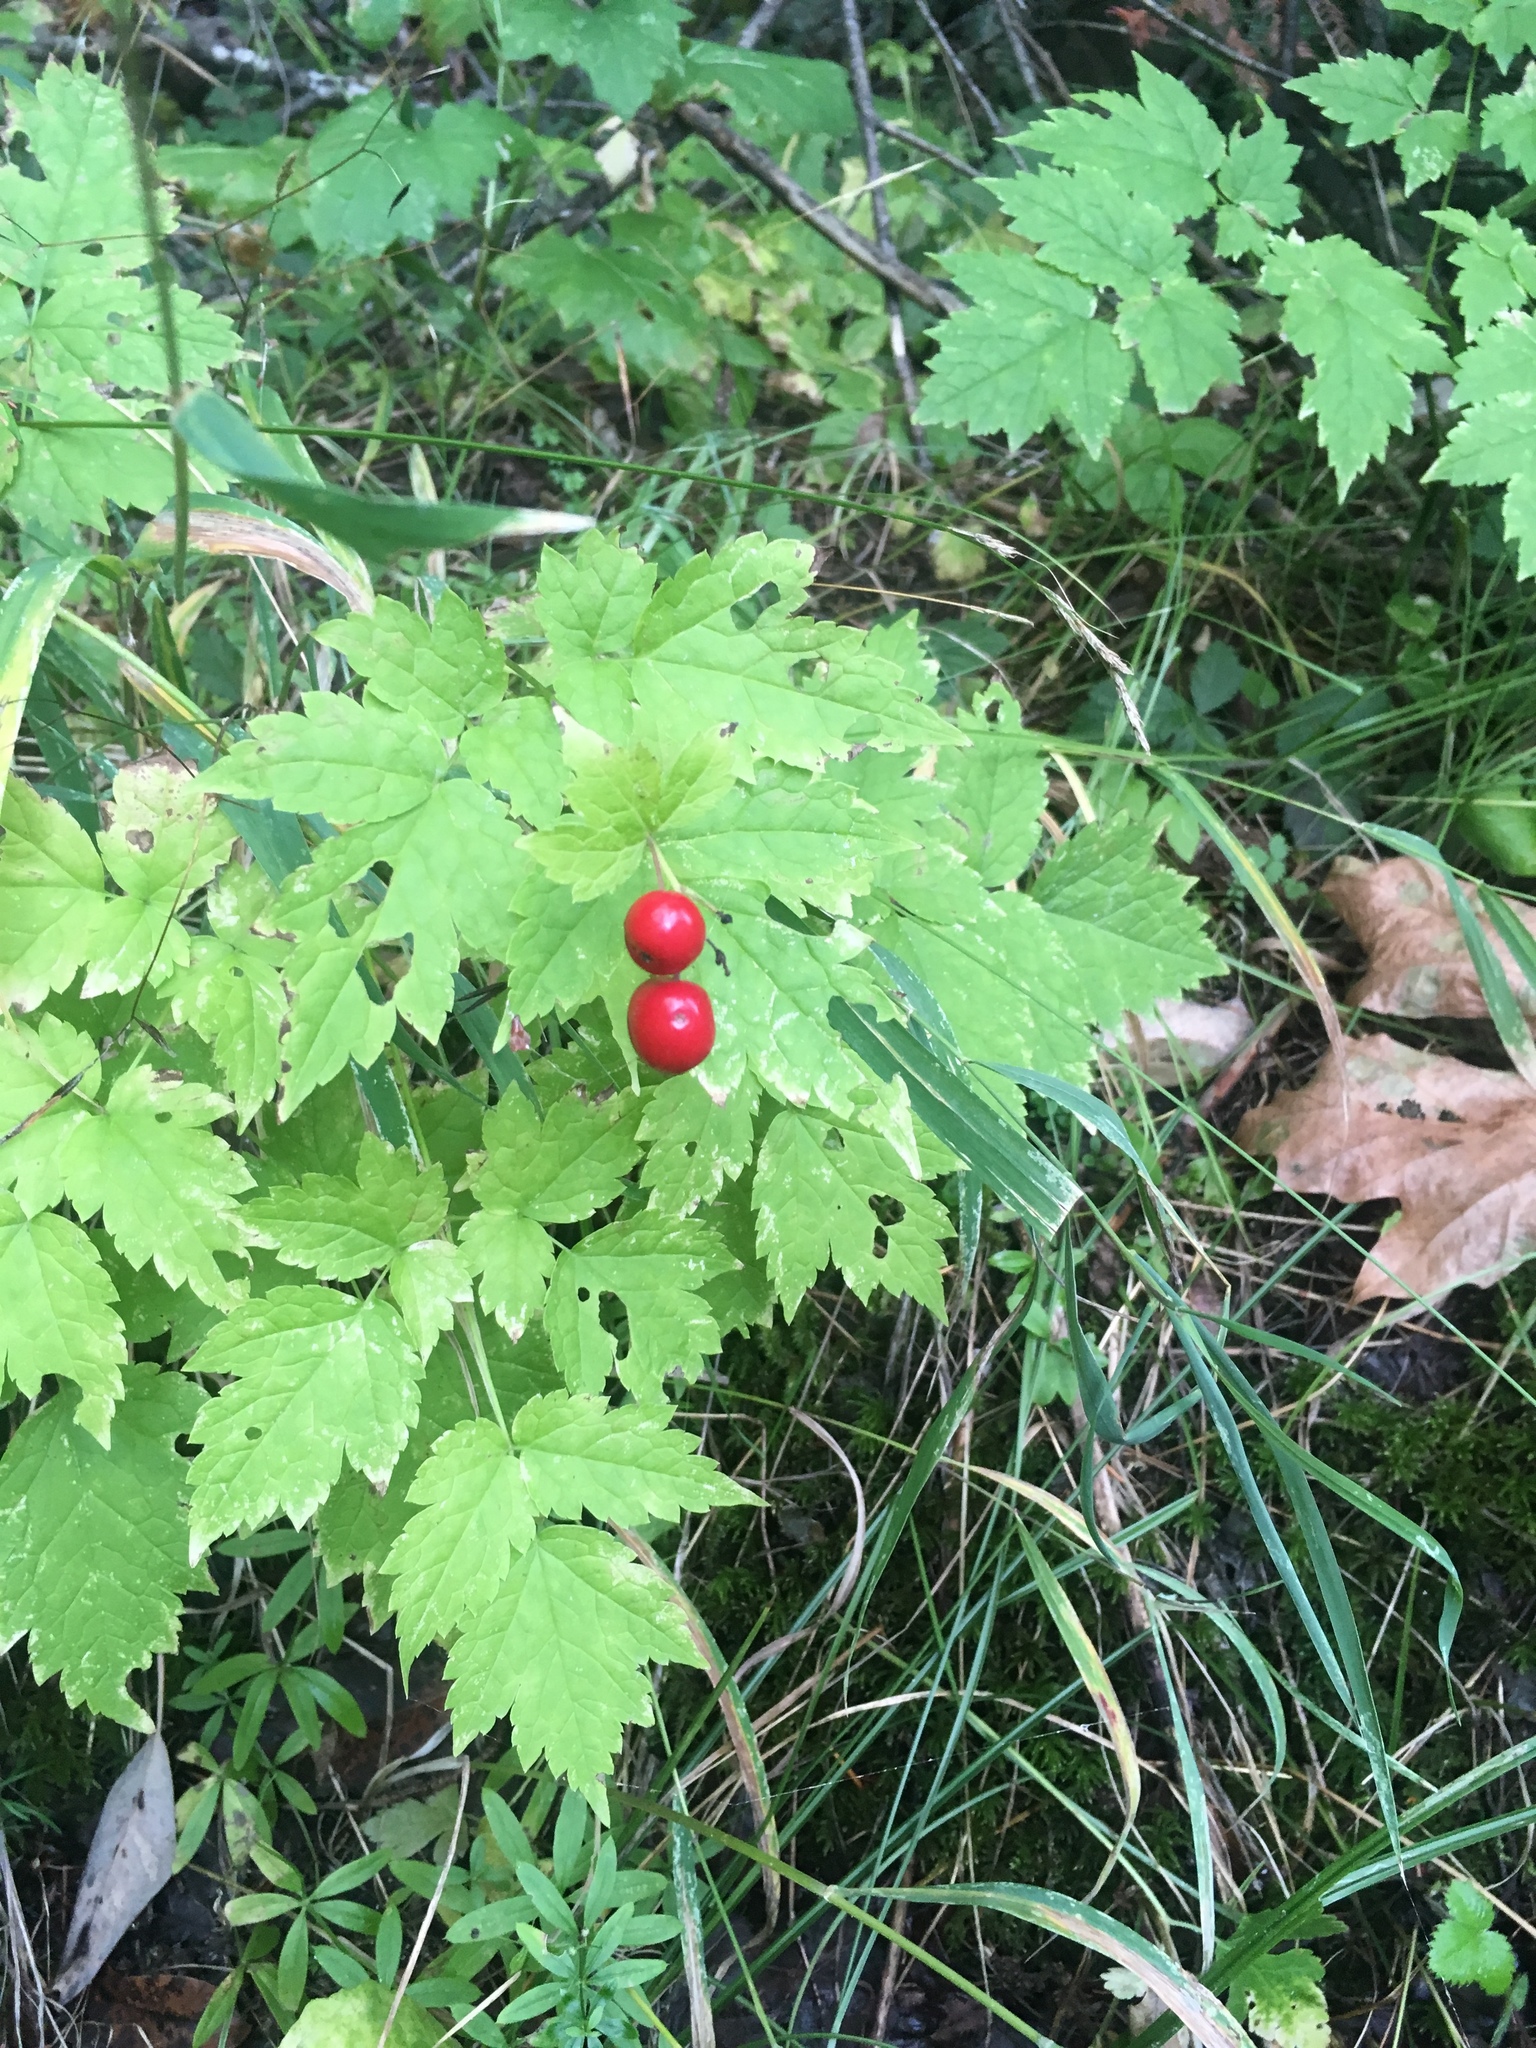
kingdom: Plantae
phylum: Tracheophyta
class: Magnoliopsida
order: Ranunculales
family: Ranunculaceae
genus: Actaea
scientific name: Actaea rubra
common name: Red baneberry
